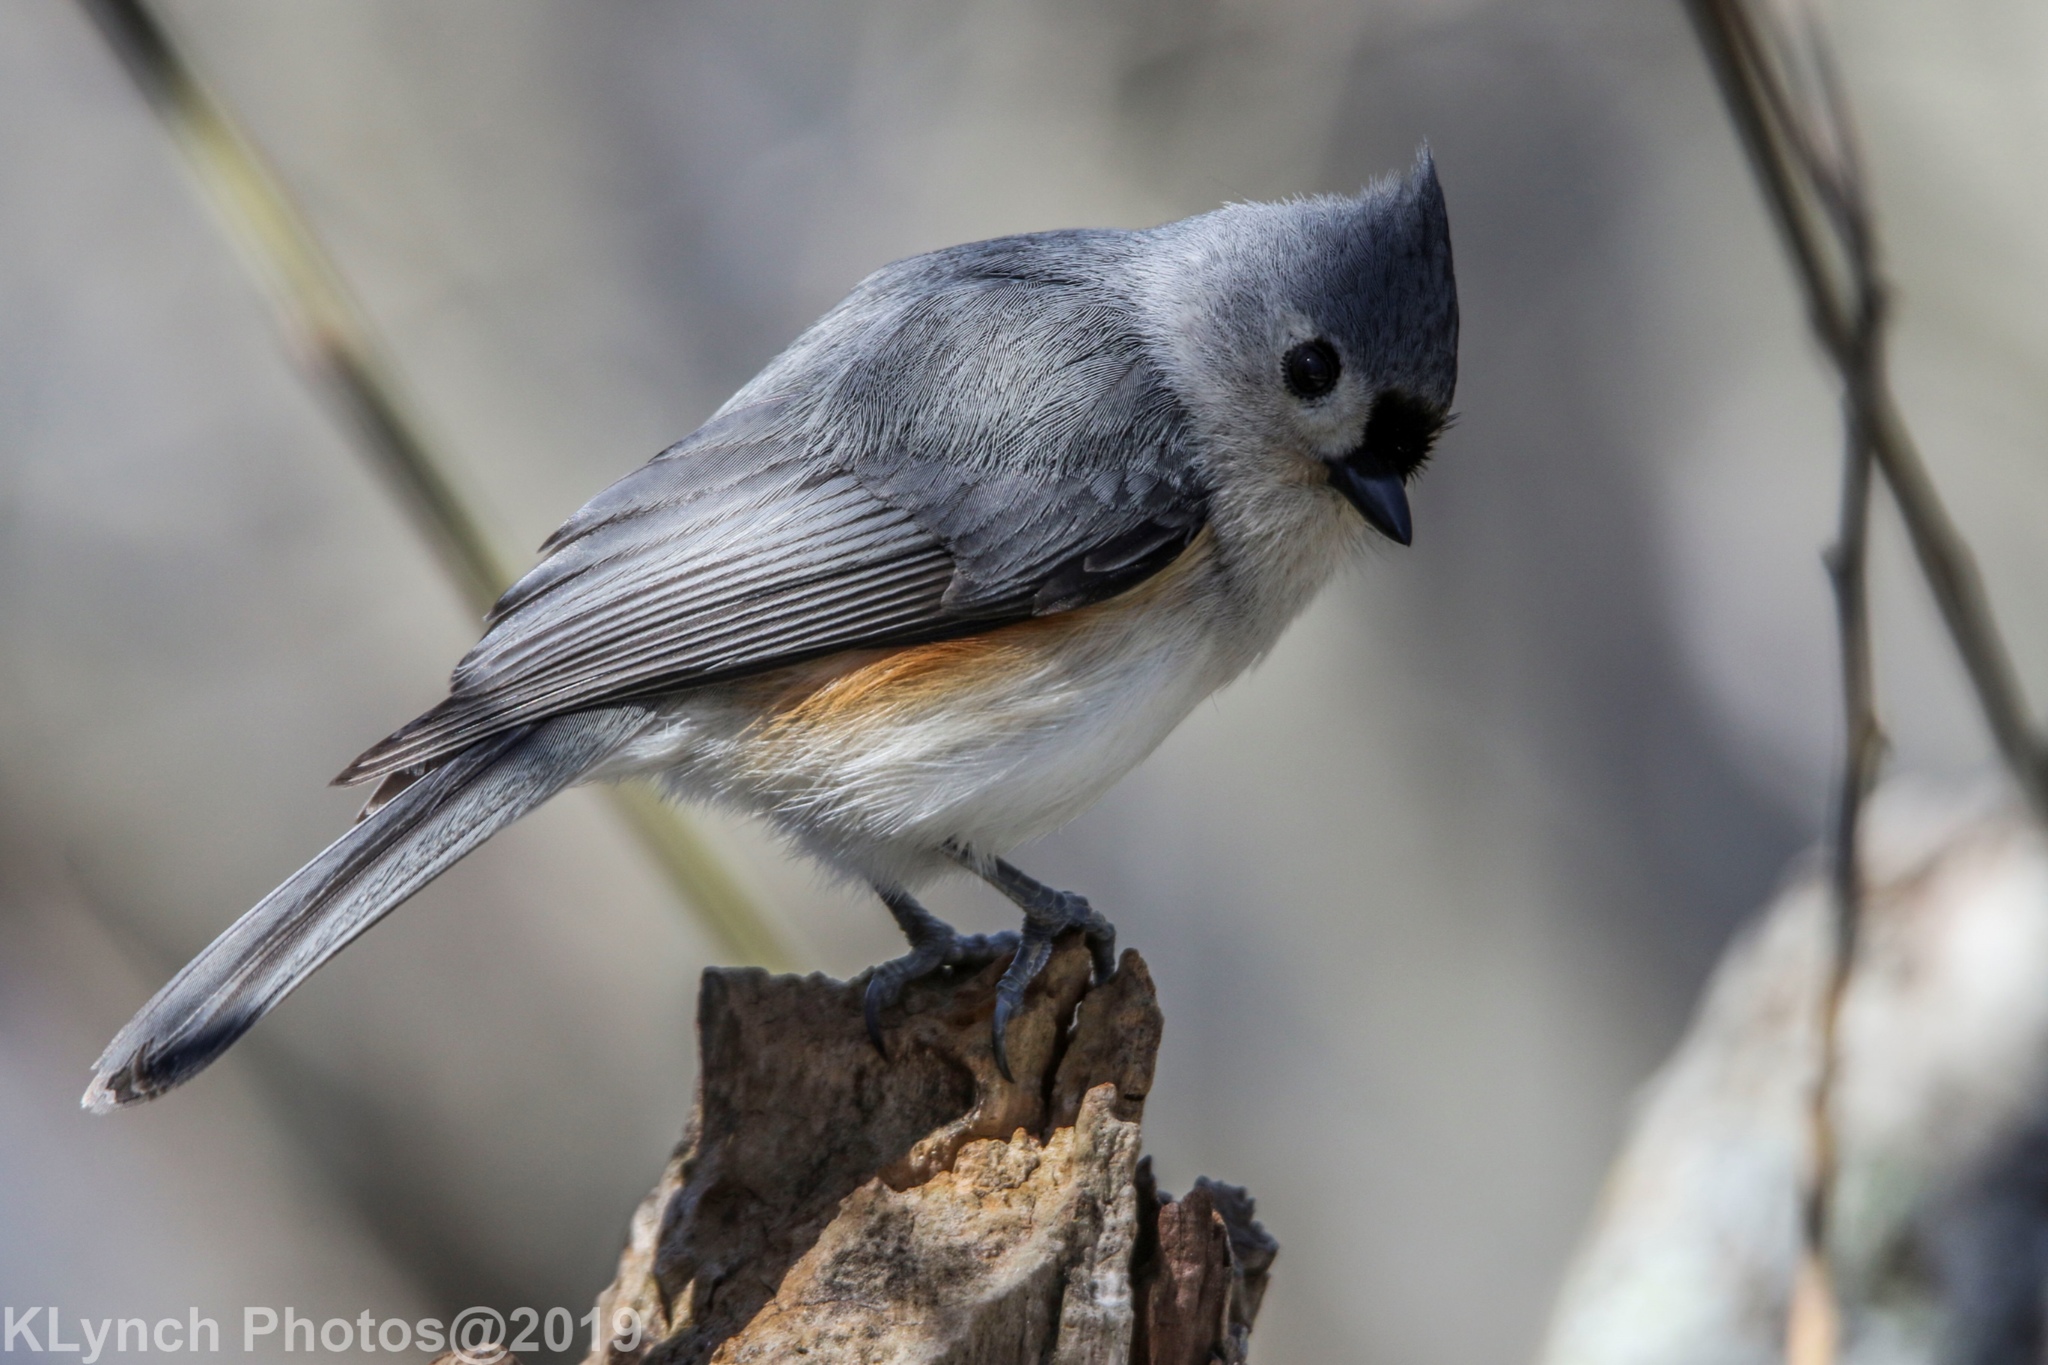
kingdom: Animalia
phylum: Chordata
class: Aves
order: Passeriformes
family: Paridae
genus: Baeolophus
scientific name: Baeolophus bicolor
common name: Tufted titmouse
